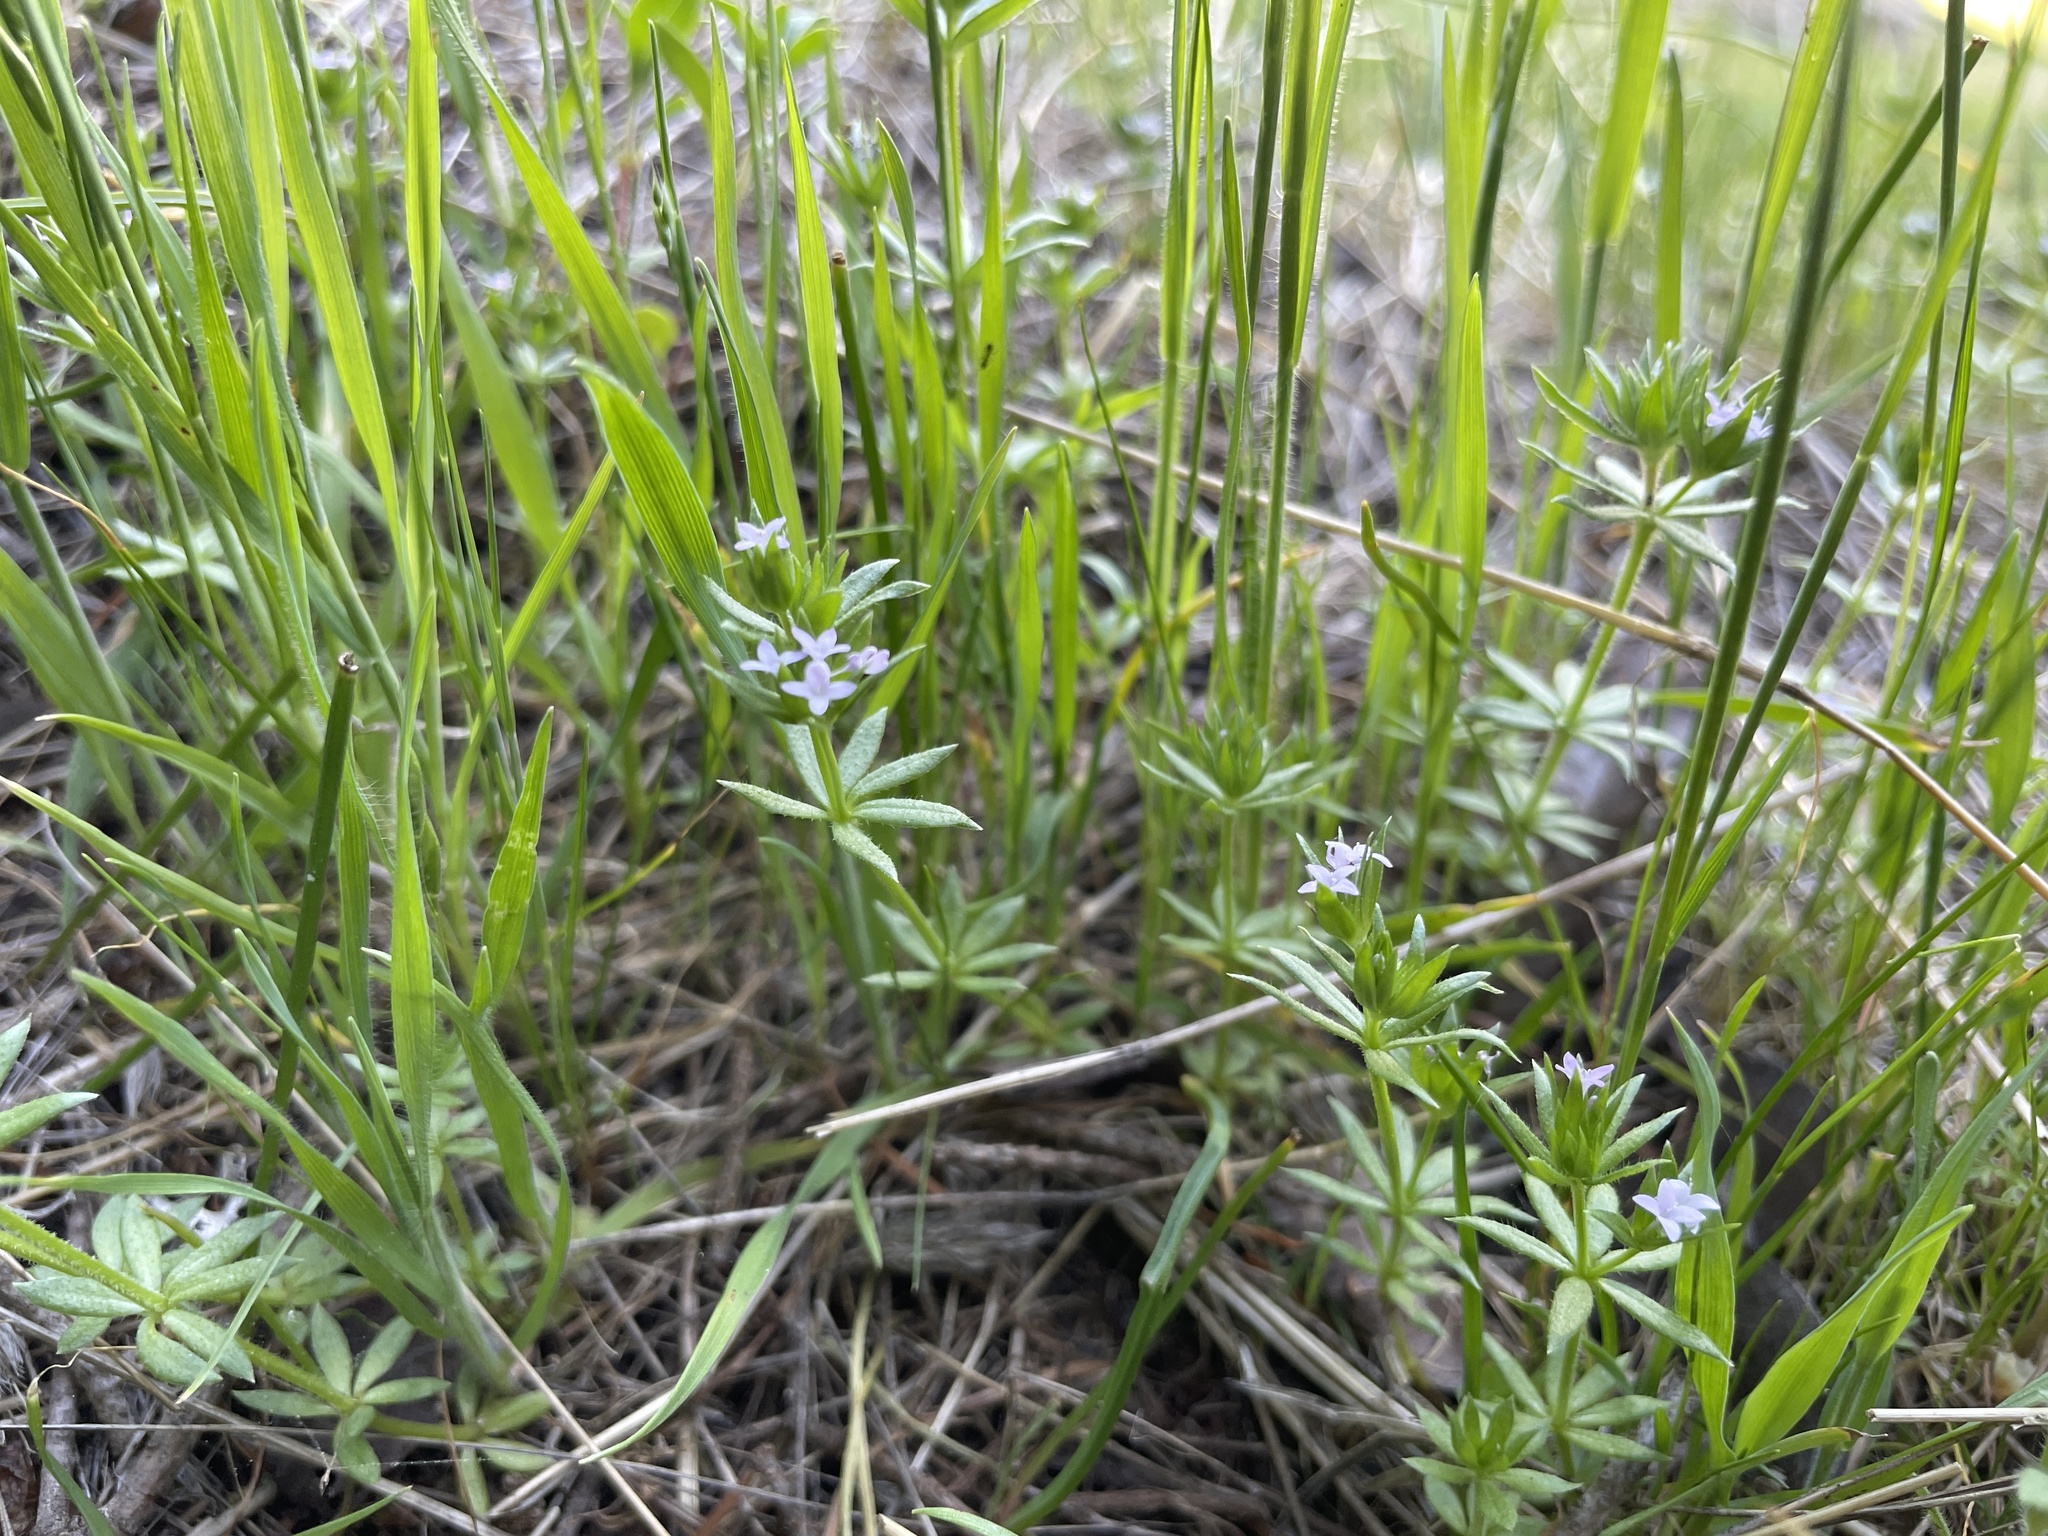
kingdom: Plantae
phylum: Tracheophyta
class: Magnoliopsida
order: Gentianales
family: Rubiaceae
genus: Sherardia
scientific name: Sherardia arvensis
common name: Field madder
